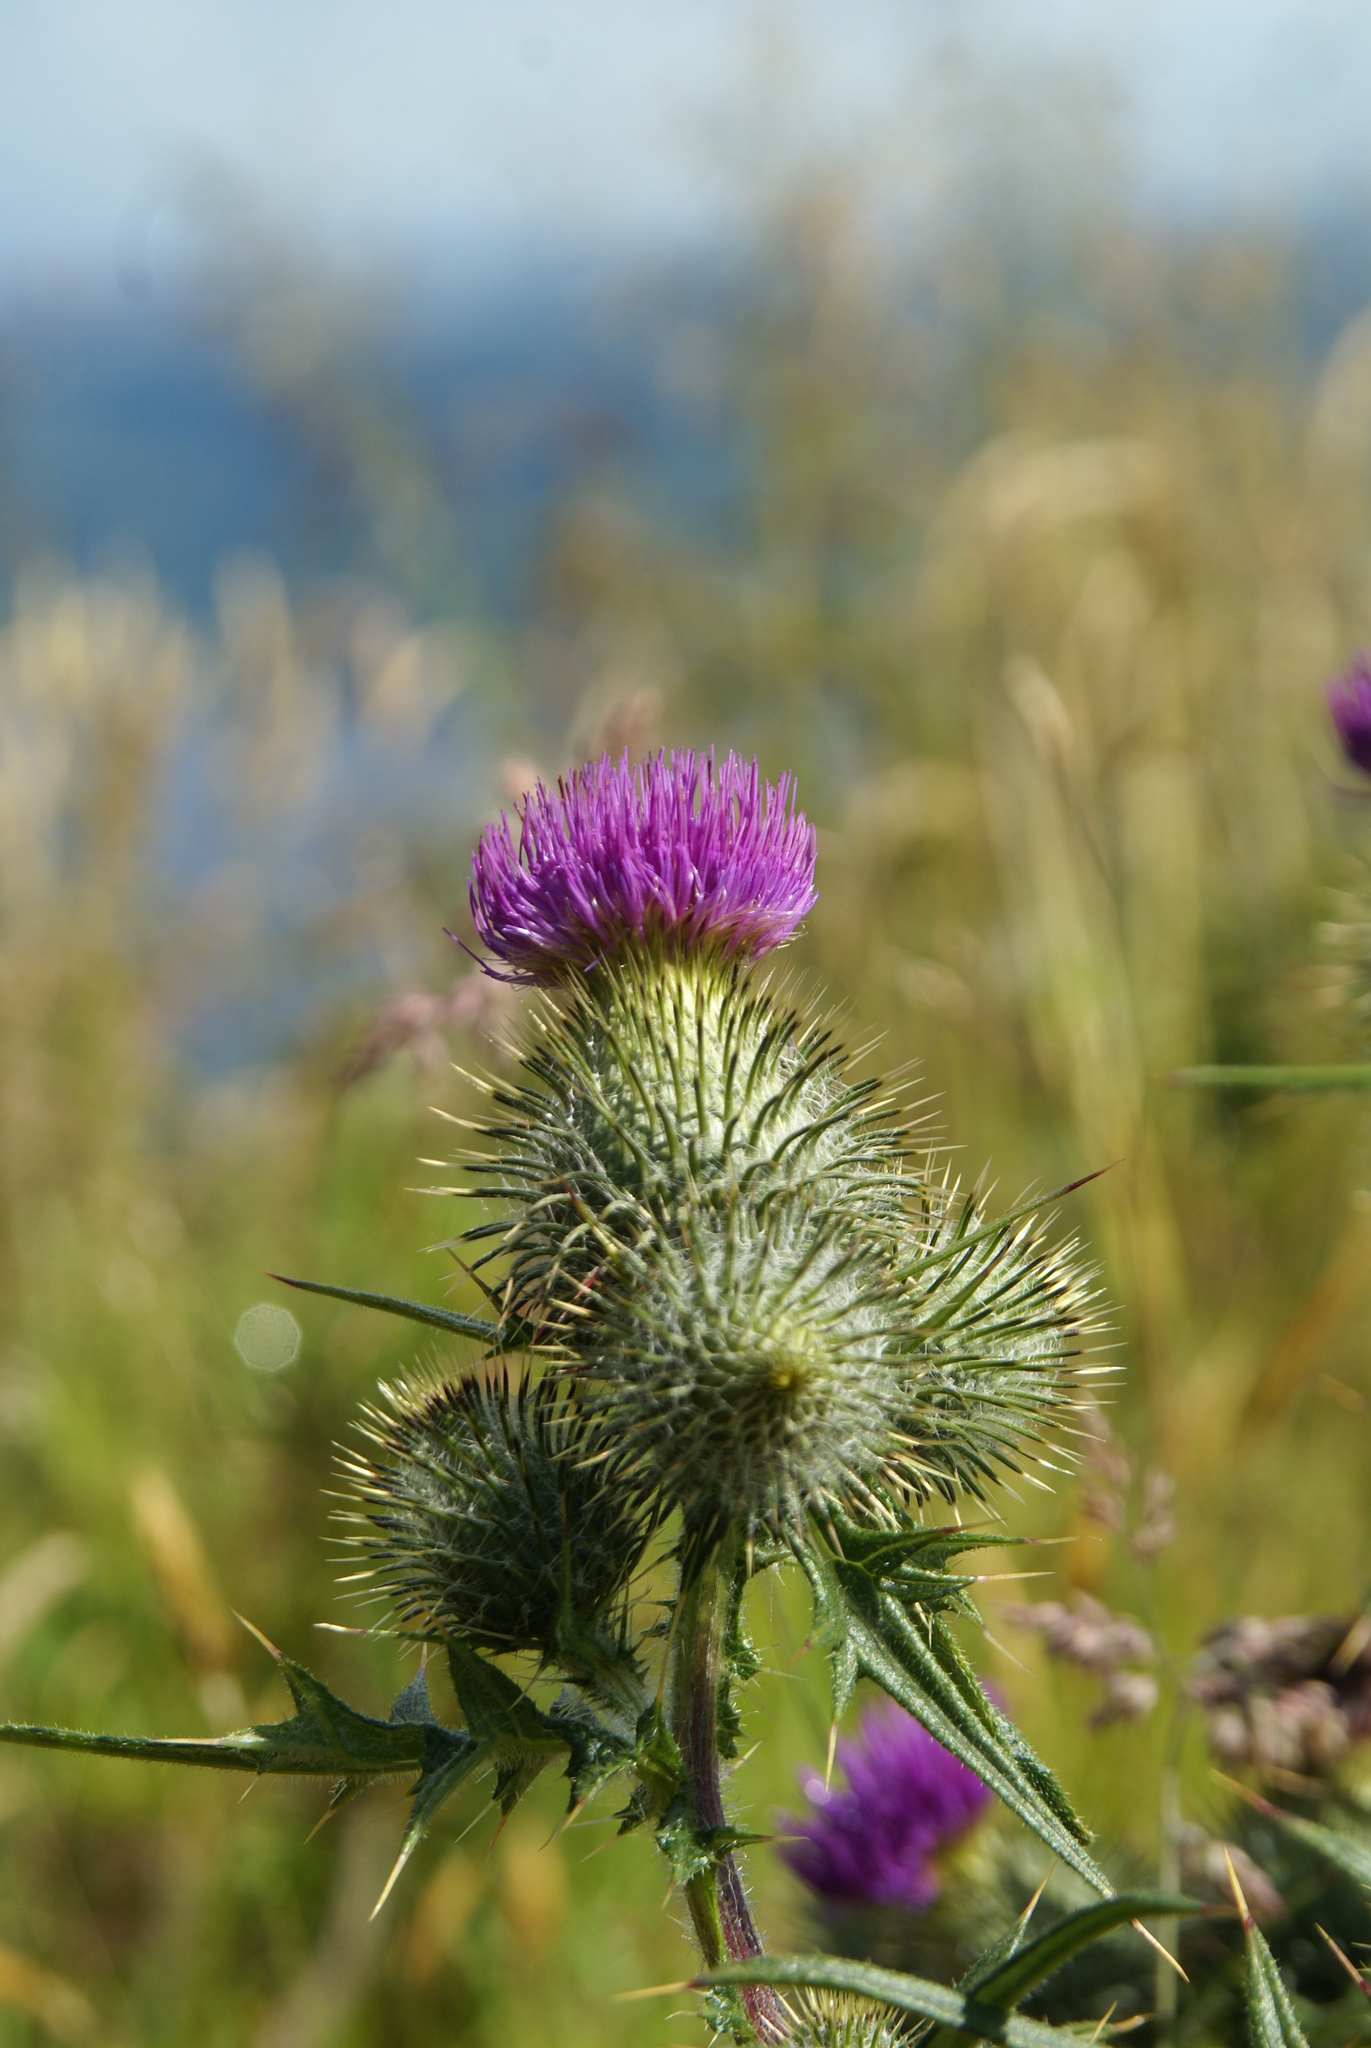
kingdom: Plantae
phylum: Tracheophyta
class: Magnoliopsida
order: Asterales
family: Asteraceae
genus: Cirsium
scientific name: Cirsium vulgare
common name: Bull thistle
